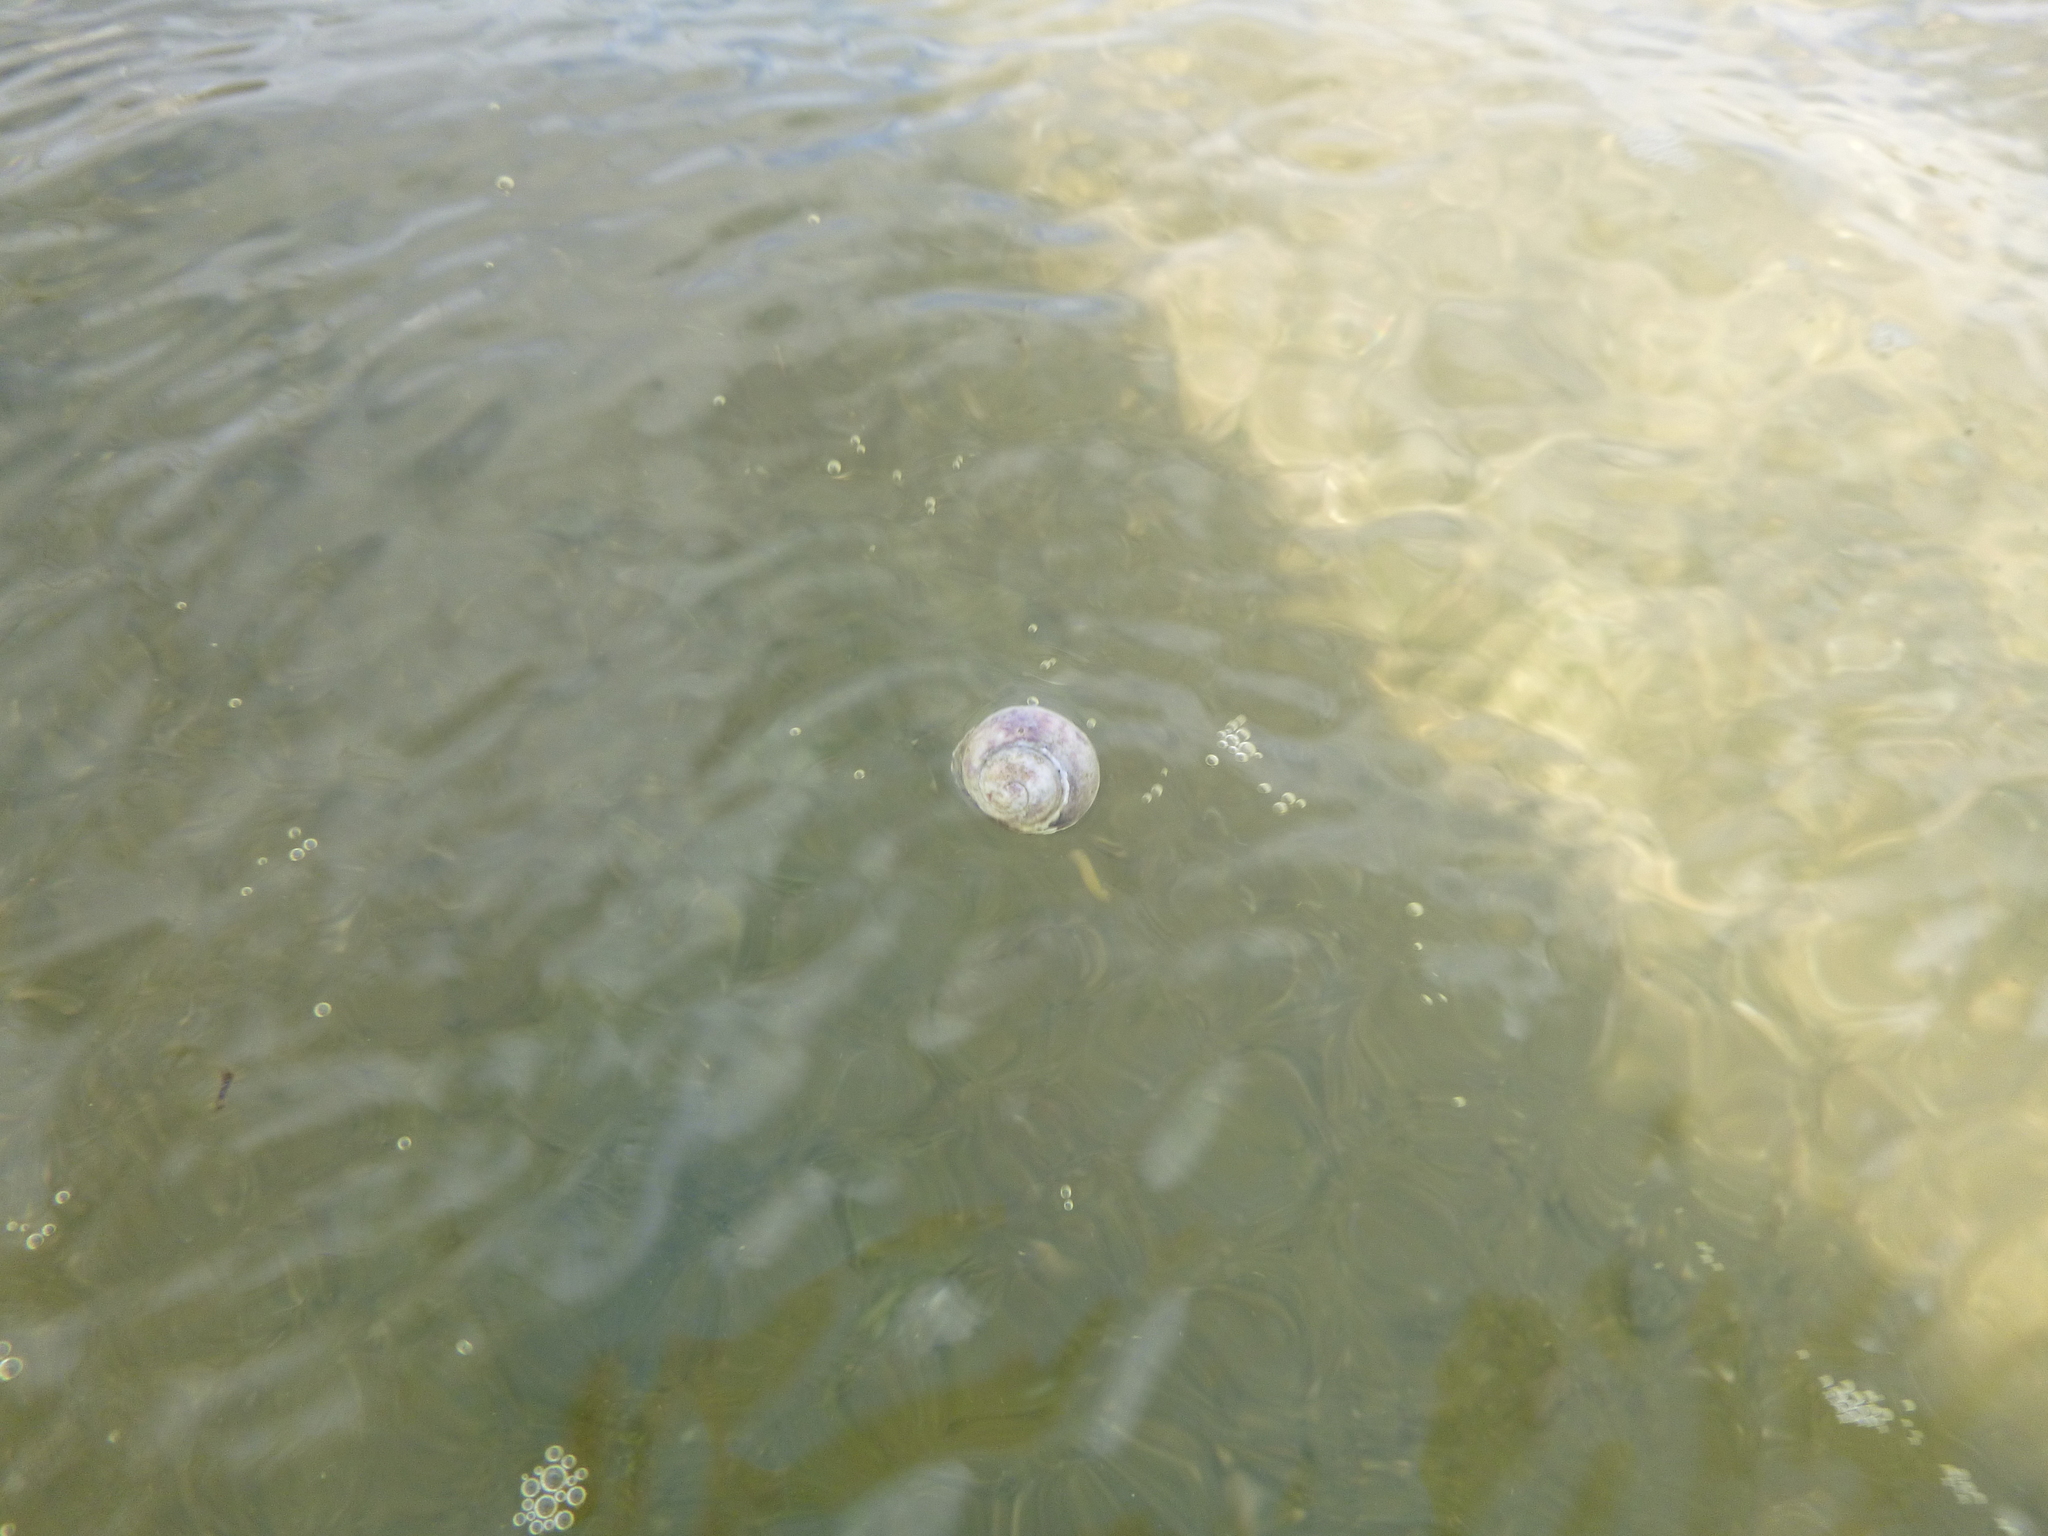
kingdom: Animalia
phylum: Mollusca
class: Gastropoda
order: Trochida
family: Trochidae
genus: Diloma
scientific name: Diloma subrostratum
